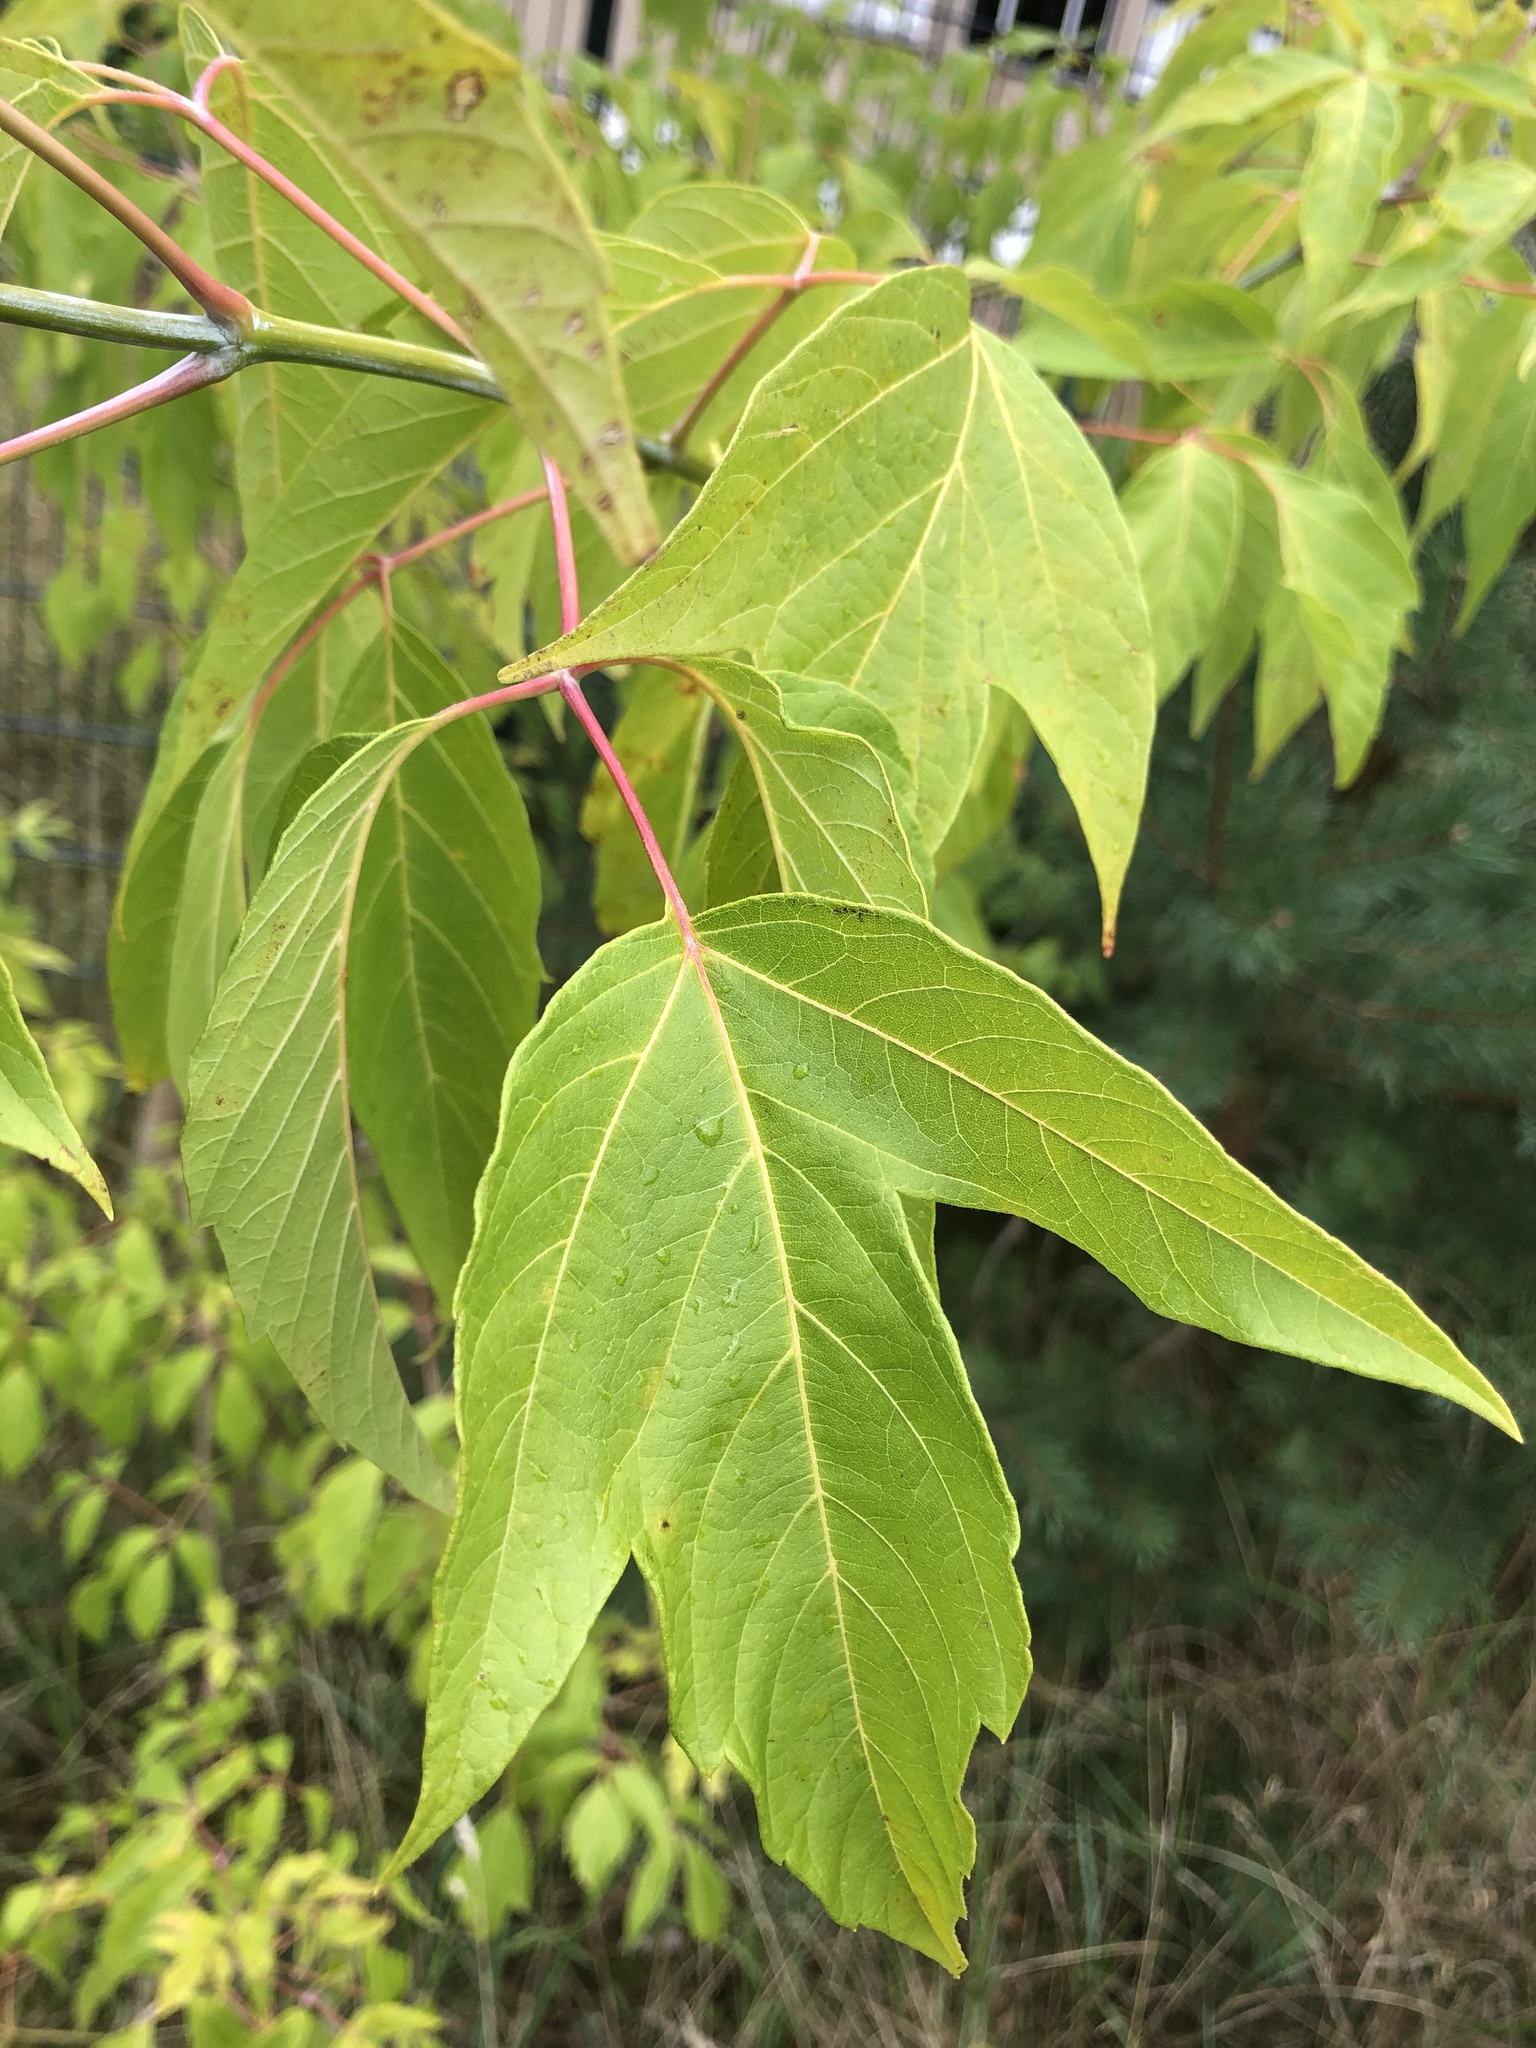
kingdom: Plantae
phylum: Tracheophyta
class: Magnoliopsida
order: Sapindales
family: Sapindaceae
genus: Acer
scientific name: Acer negundo
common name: Ashleaf maple
